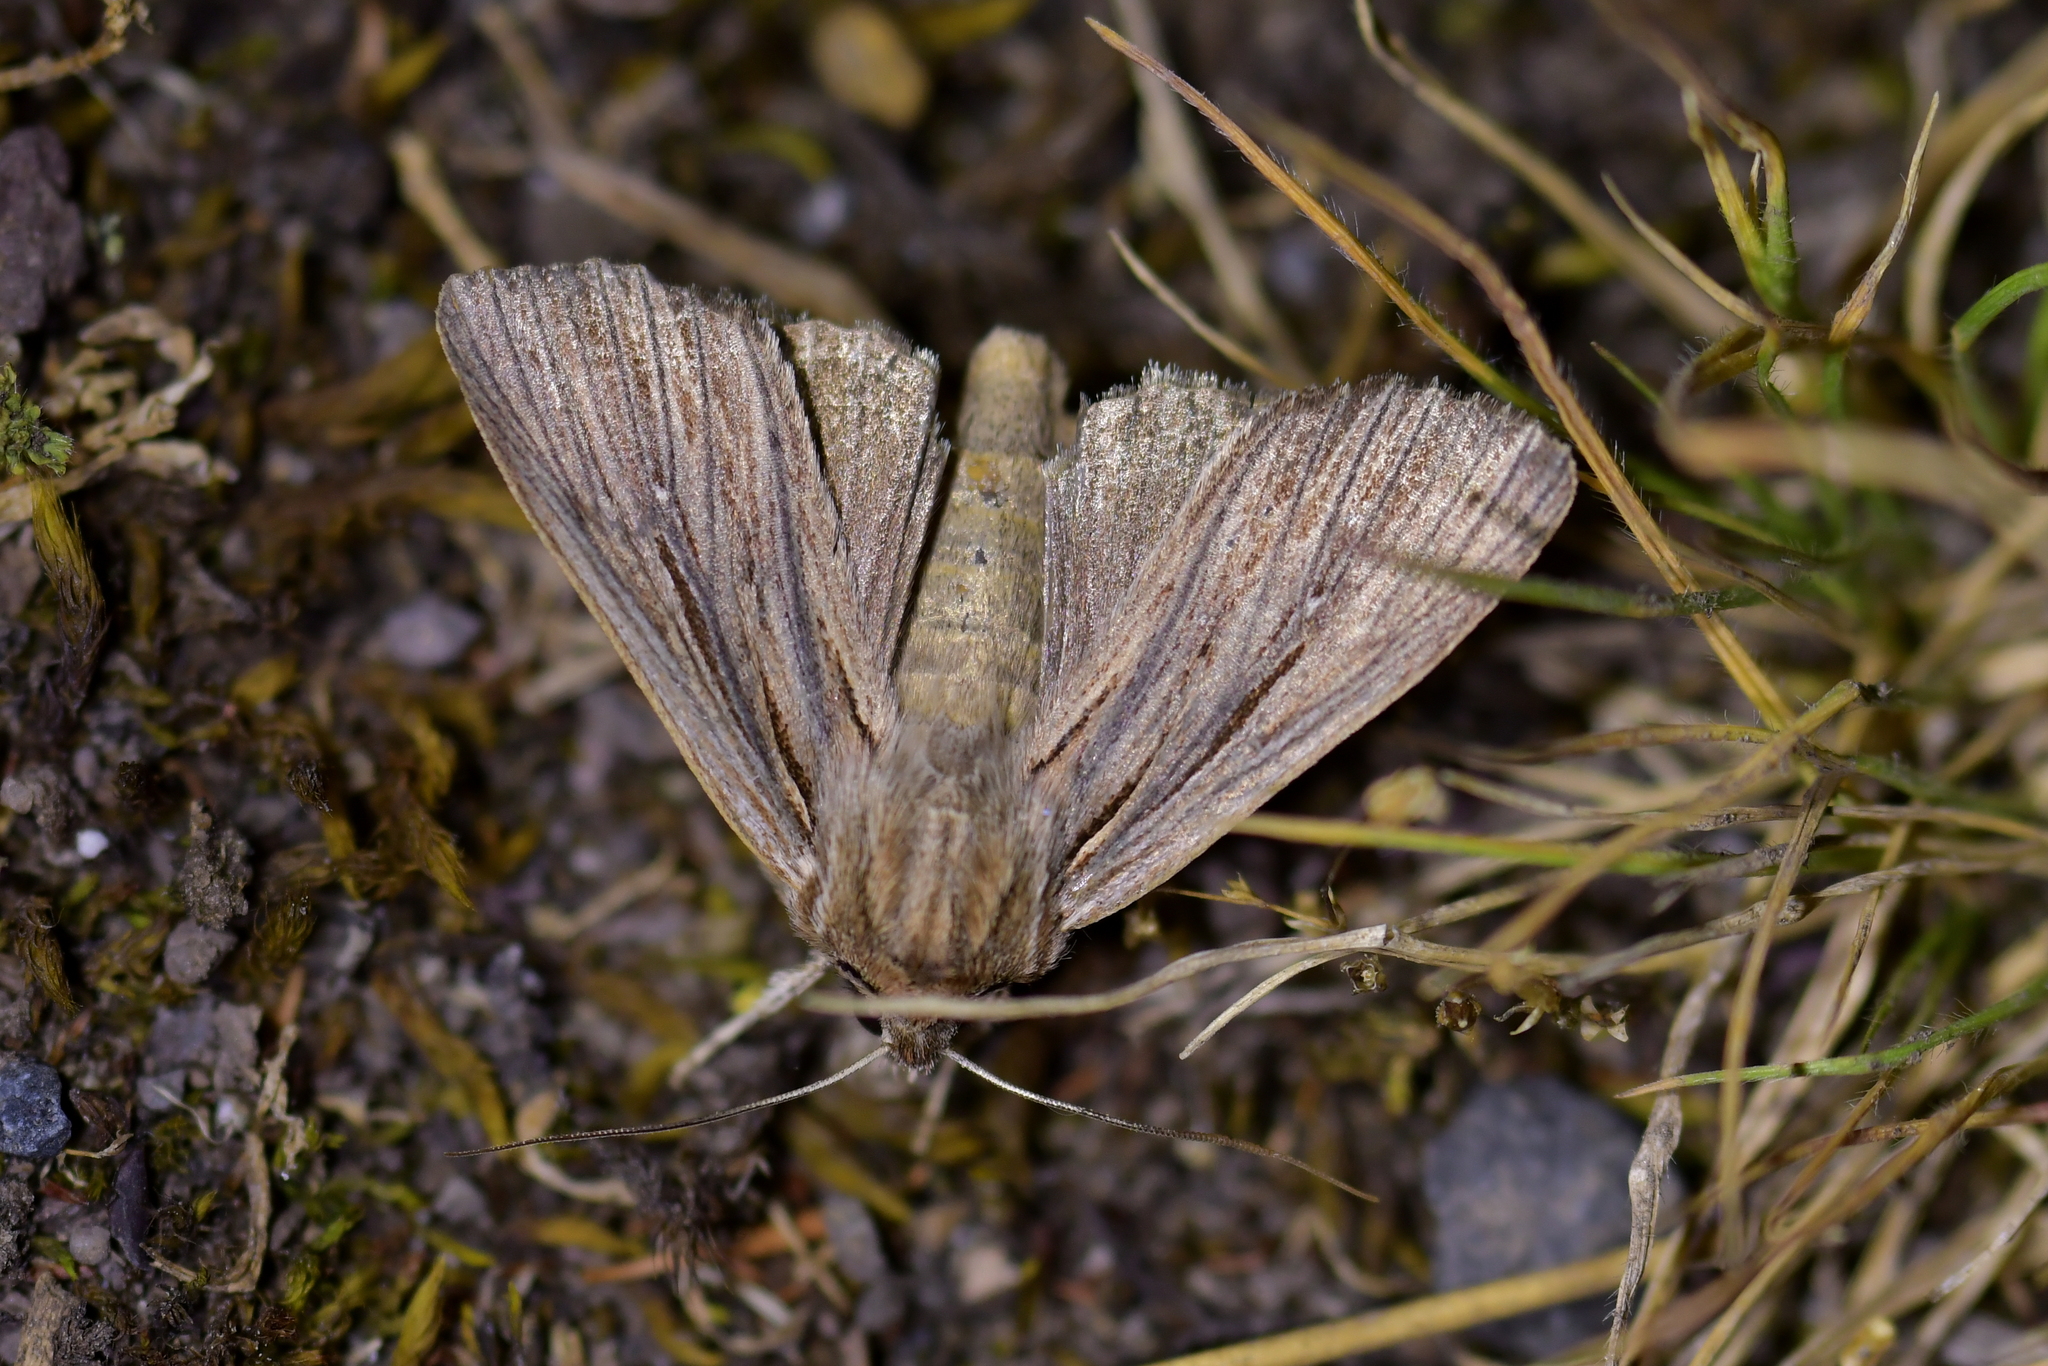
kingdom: Animalia
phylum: Arthropoda
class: Insecta
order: Lepidoptera
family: Noctuidae
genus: Ichneutica
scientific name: Ichneutica
